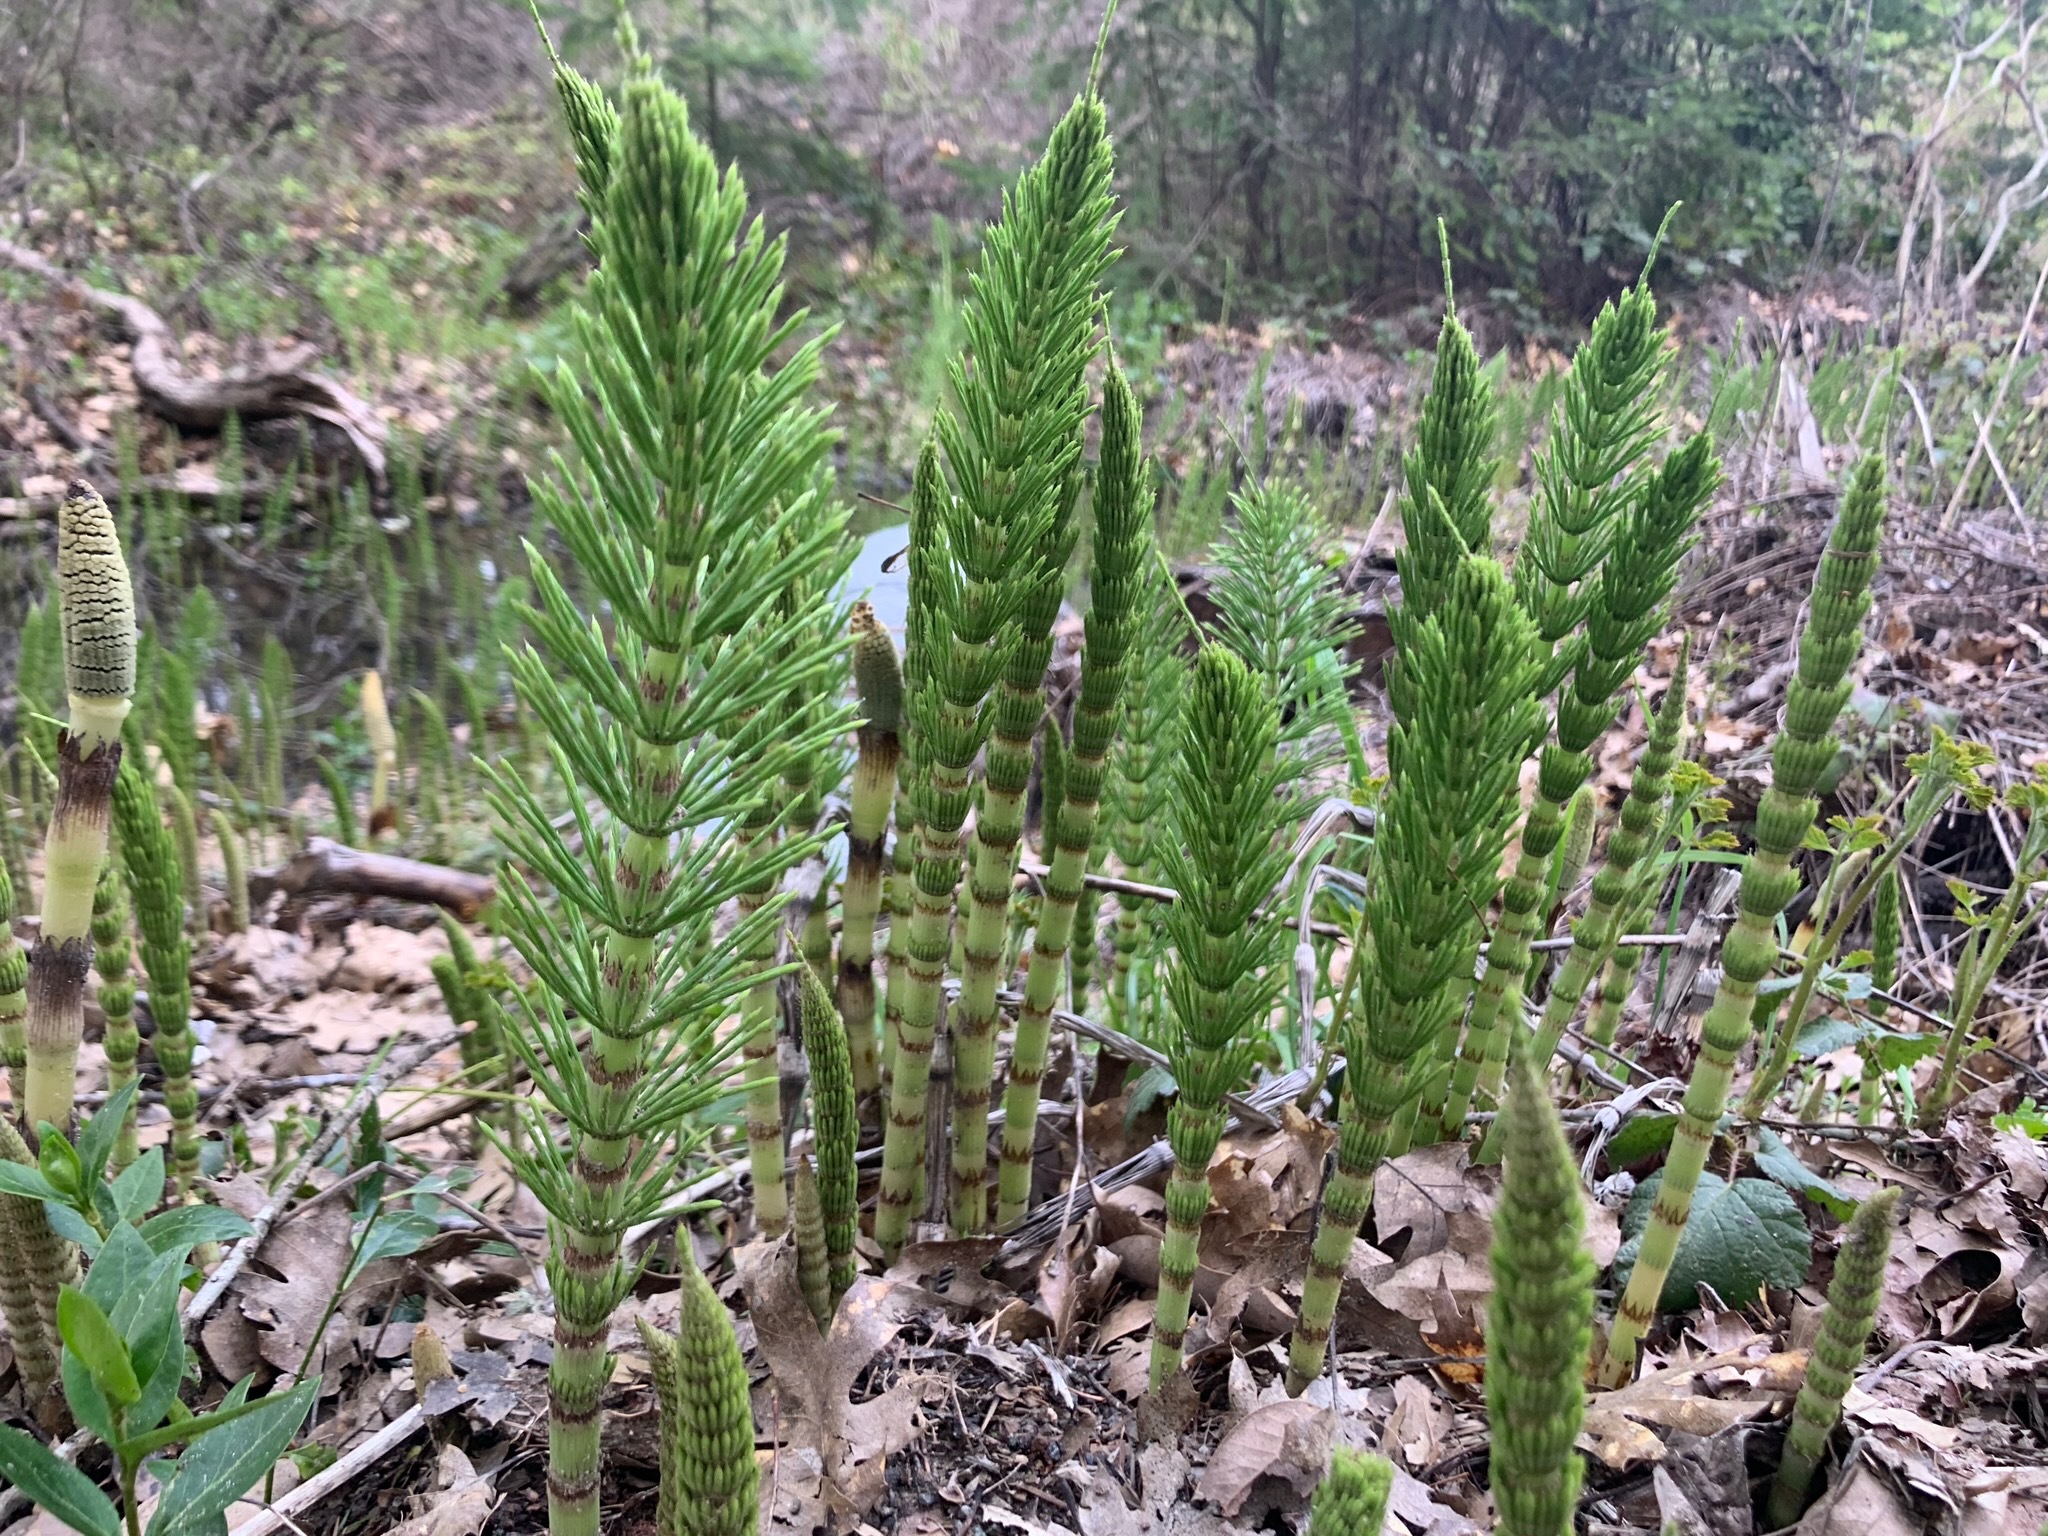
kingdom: Plantae
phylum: Tracheophyta
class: Polypodiopsida
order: Equisetales
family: Equisetaceae
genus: Equisetum
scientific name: Equisetum telmateia
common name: Great horsetail
